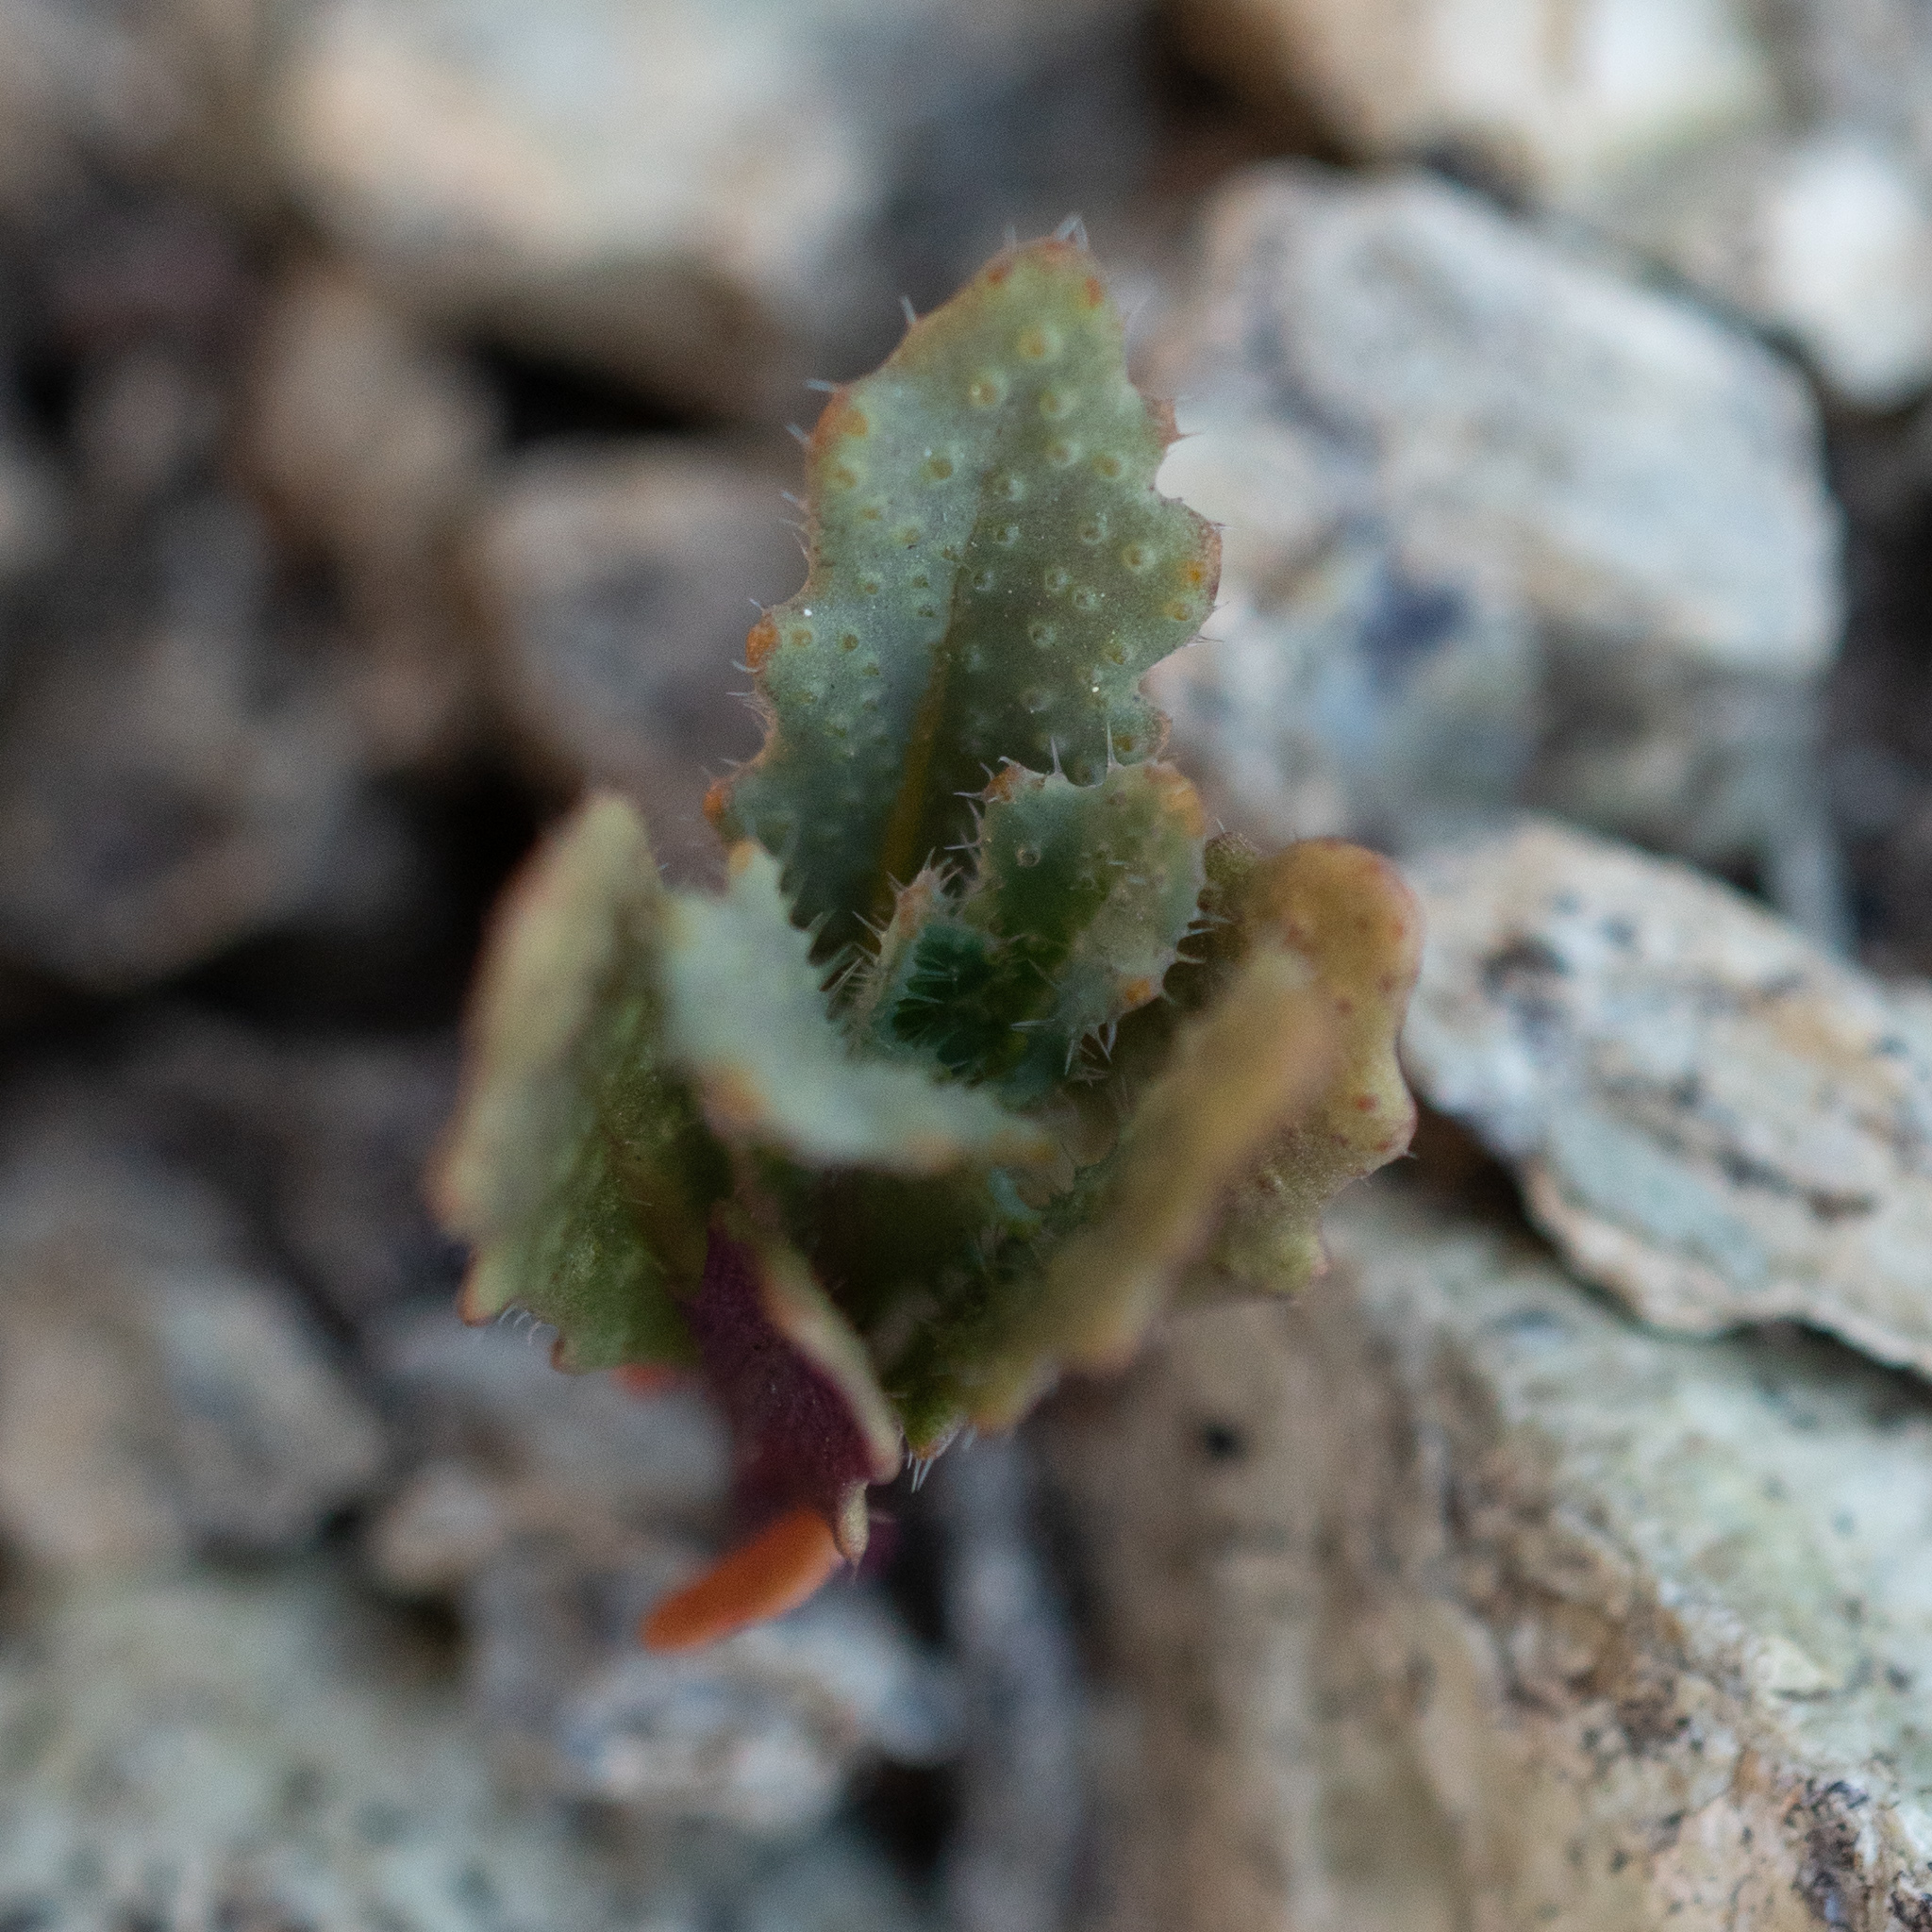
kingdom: Plantae
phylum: Tracheophyta
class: Magnoliopsida
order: Brassicales
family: Brassicaceae
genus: Streptanthus
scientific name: Streptanthus glandulosus
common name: Jewel-flower
